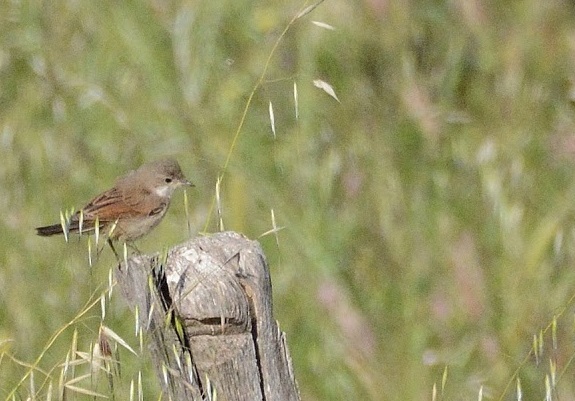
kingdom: Animalia
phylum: Chordata
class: Aves
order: Passeriformes
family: Sylviidae
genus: Sylvia
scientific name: Sylvia communis
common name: Common whitethroat
